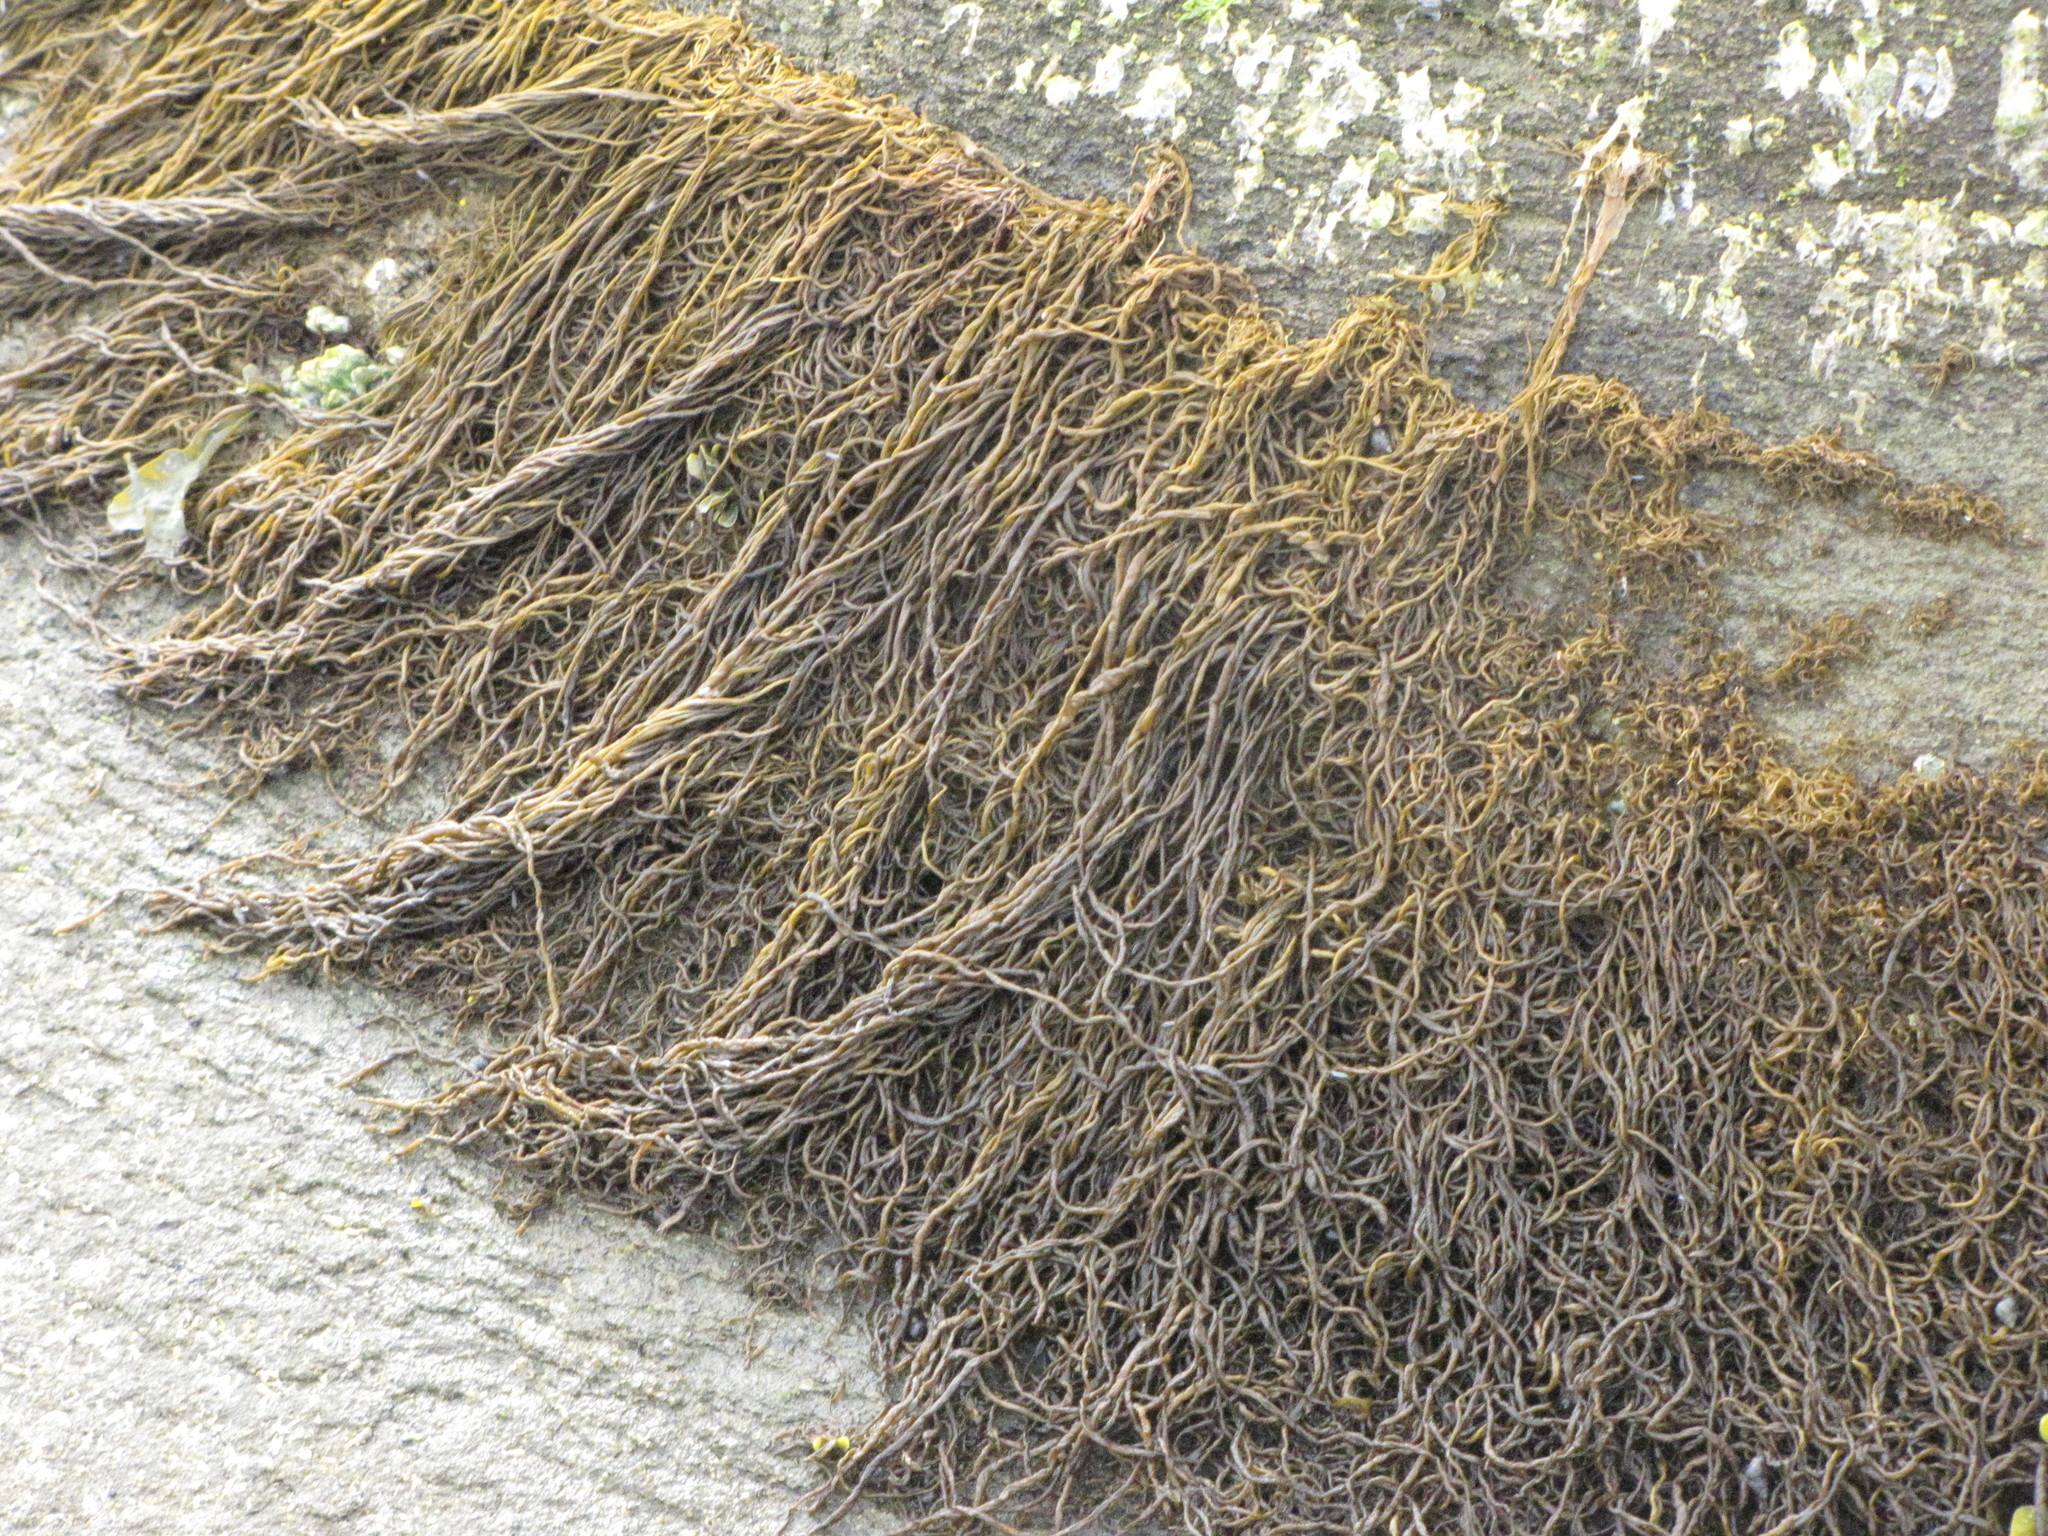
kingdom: Chromista
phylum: Ochrophyta
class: Phaeophyceae
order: Ectocarpales
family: Chordariaceae
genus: Melanosiphon
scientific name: Melanosiphon intestinalis
